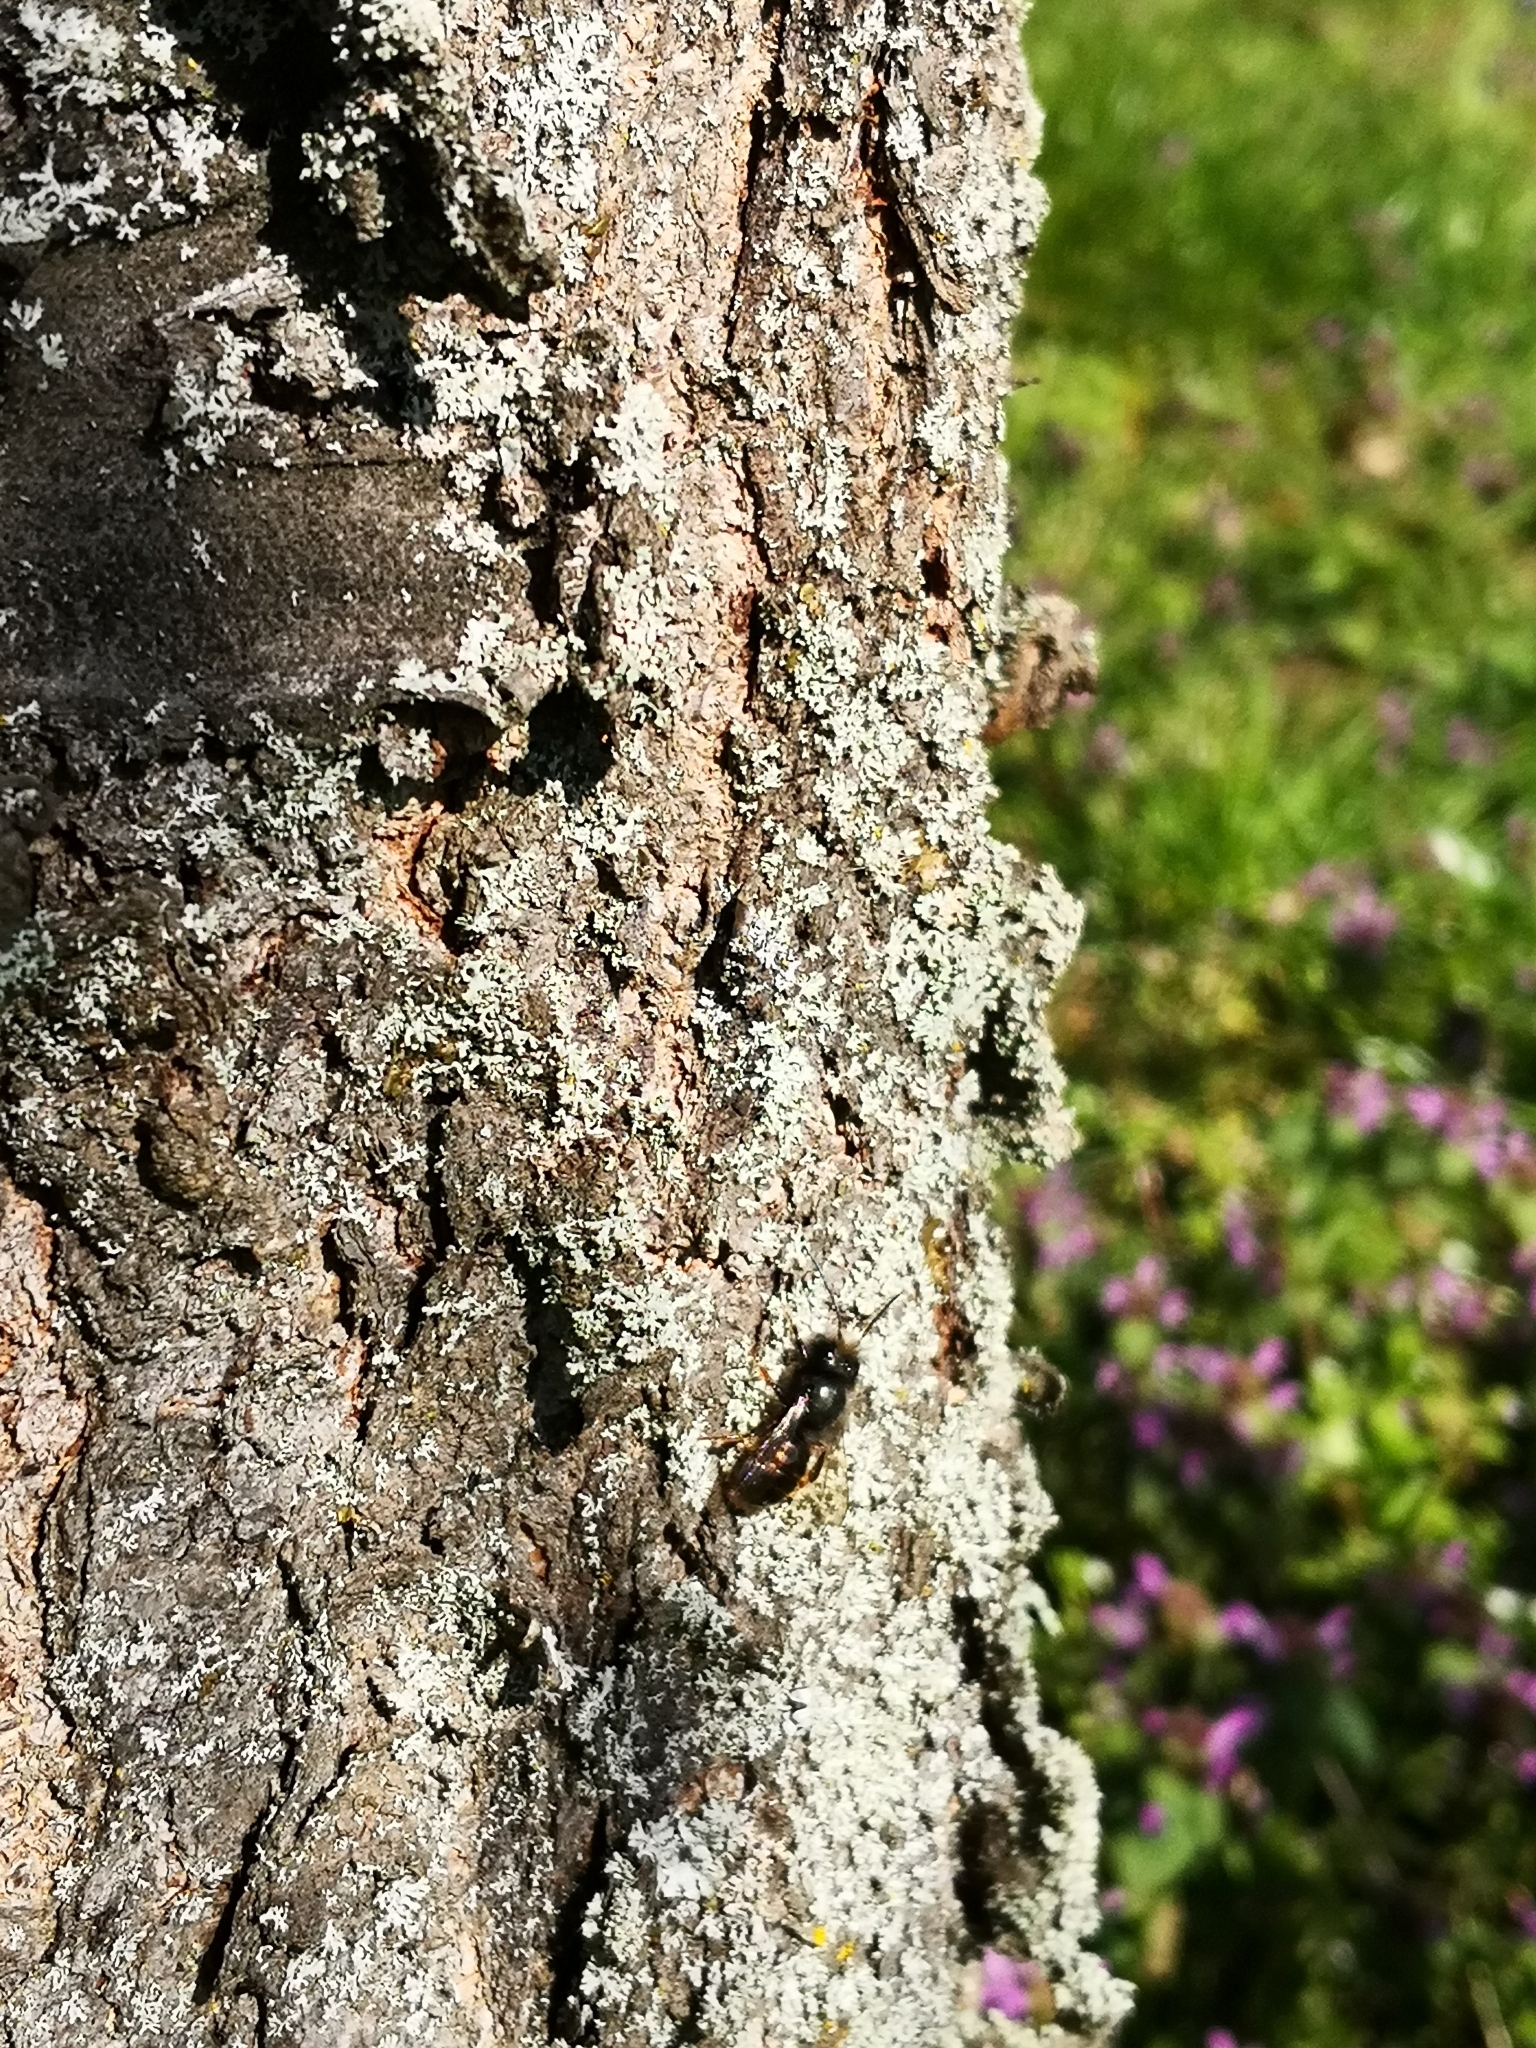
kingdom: Animalia
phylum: Arthropoda
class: Insecta
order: Hymenoptera
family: Megachilidae
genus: Osmia
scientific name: Osmia cornuta
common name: Mason bee
